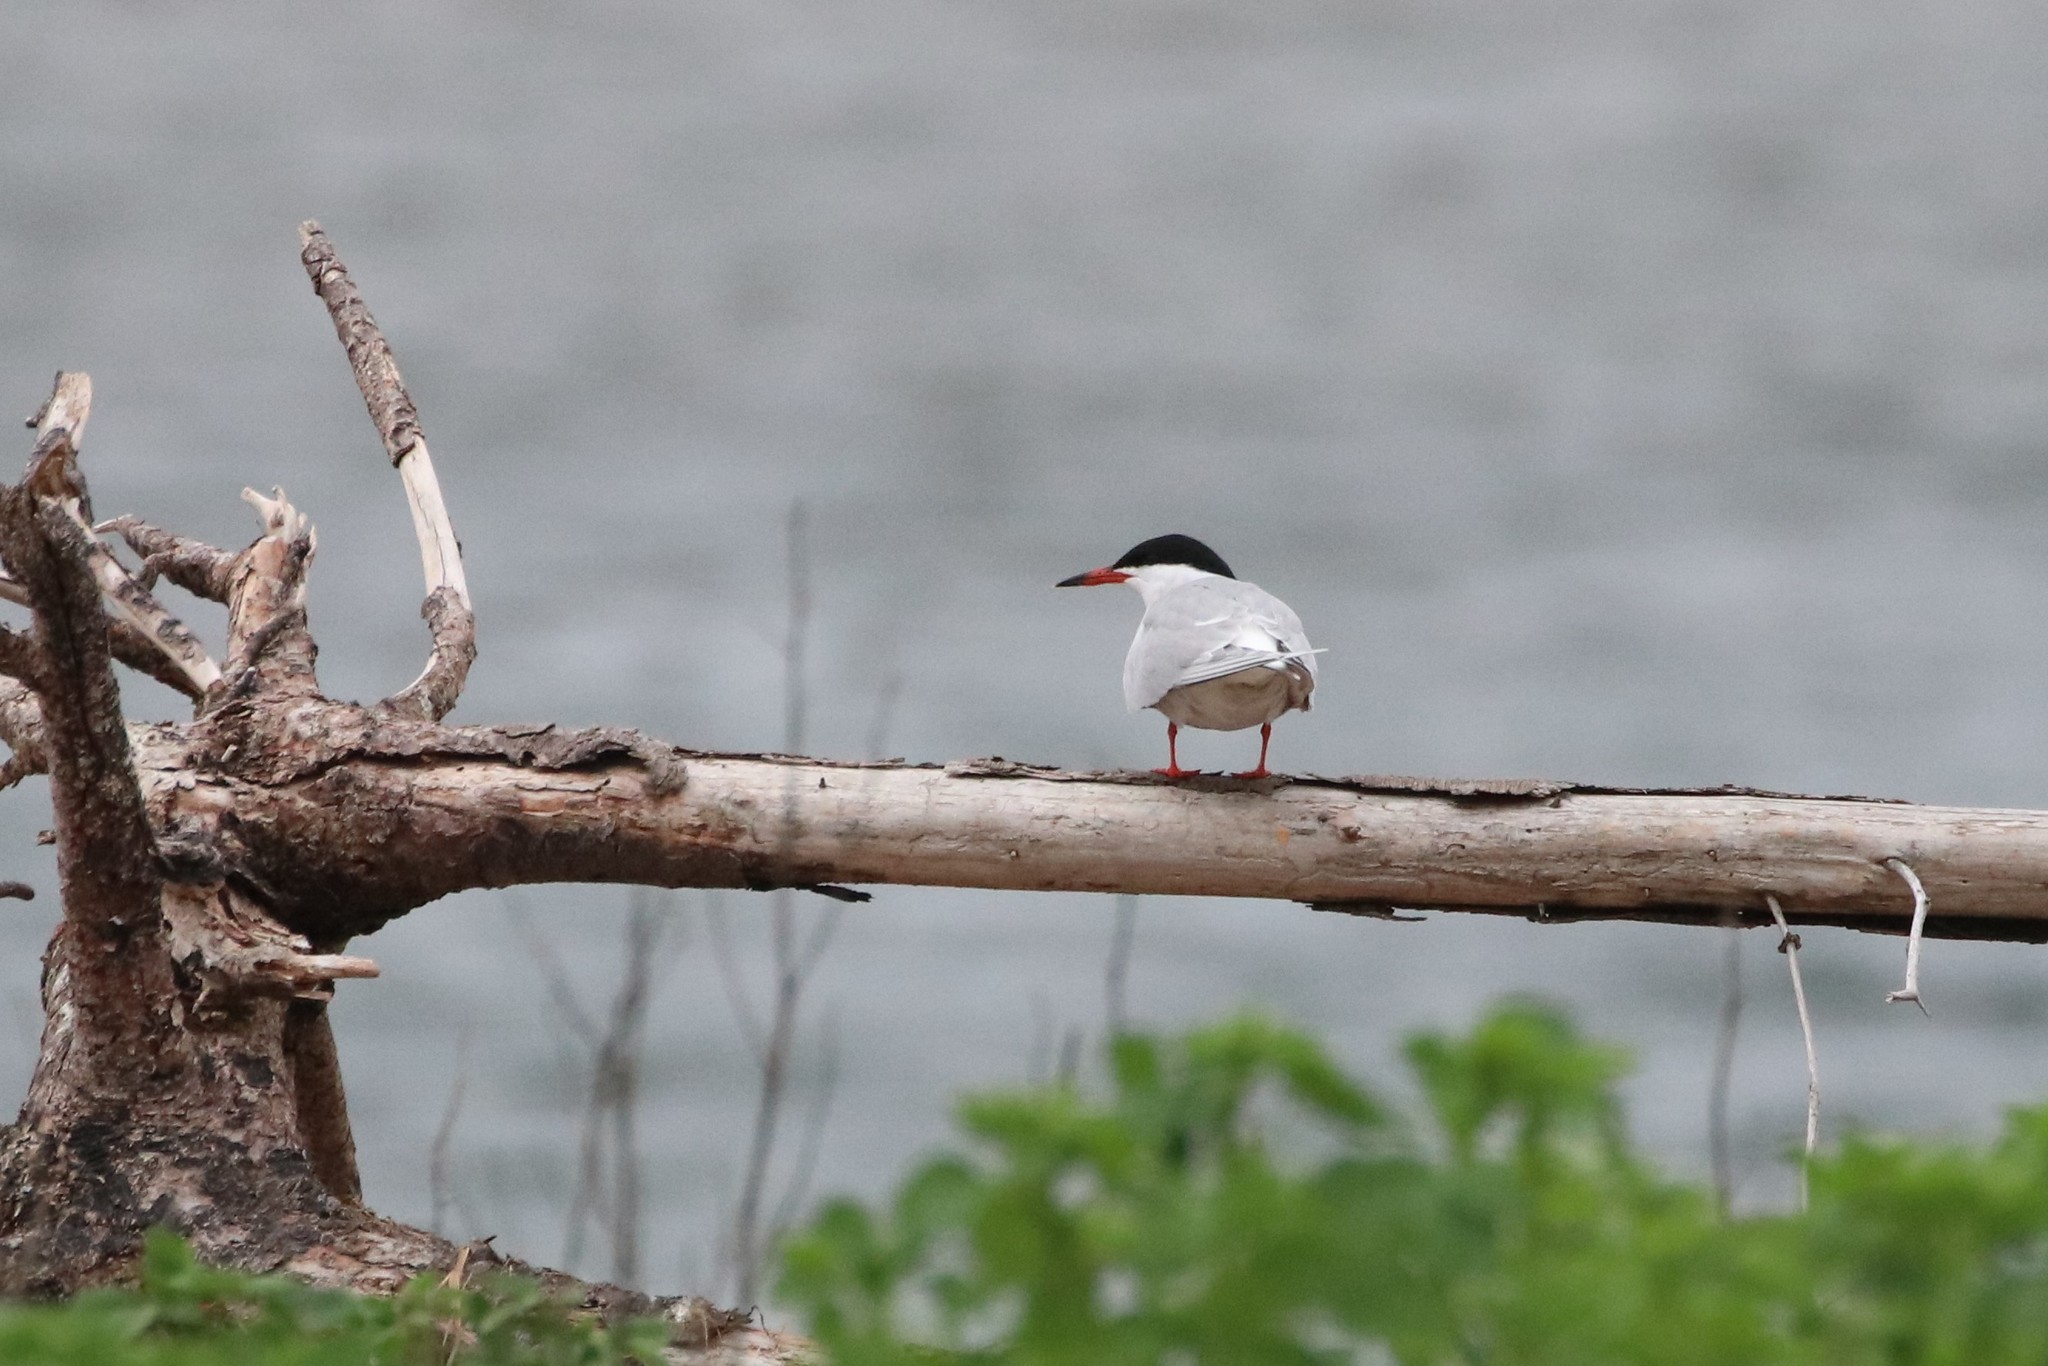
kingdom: Animalia
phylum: Chordata
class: Aves
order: Charadriiformes
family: Laridae
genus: Sterna
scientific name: Sterna hirundo
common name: Common tern
